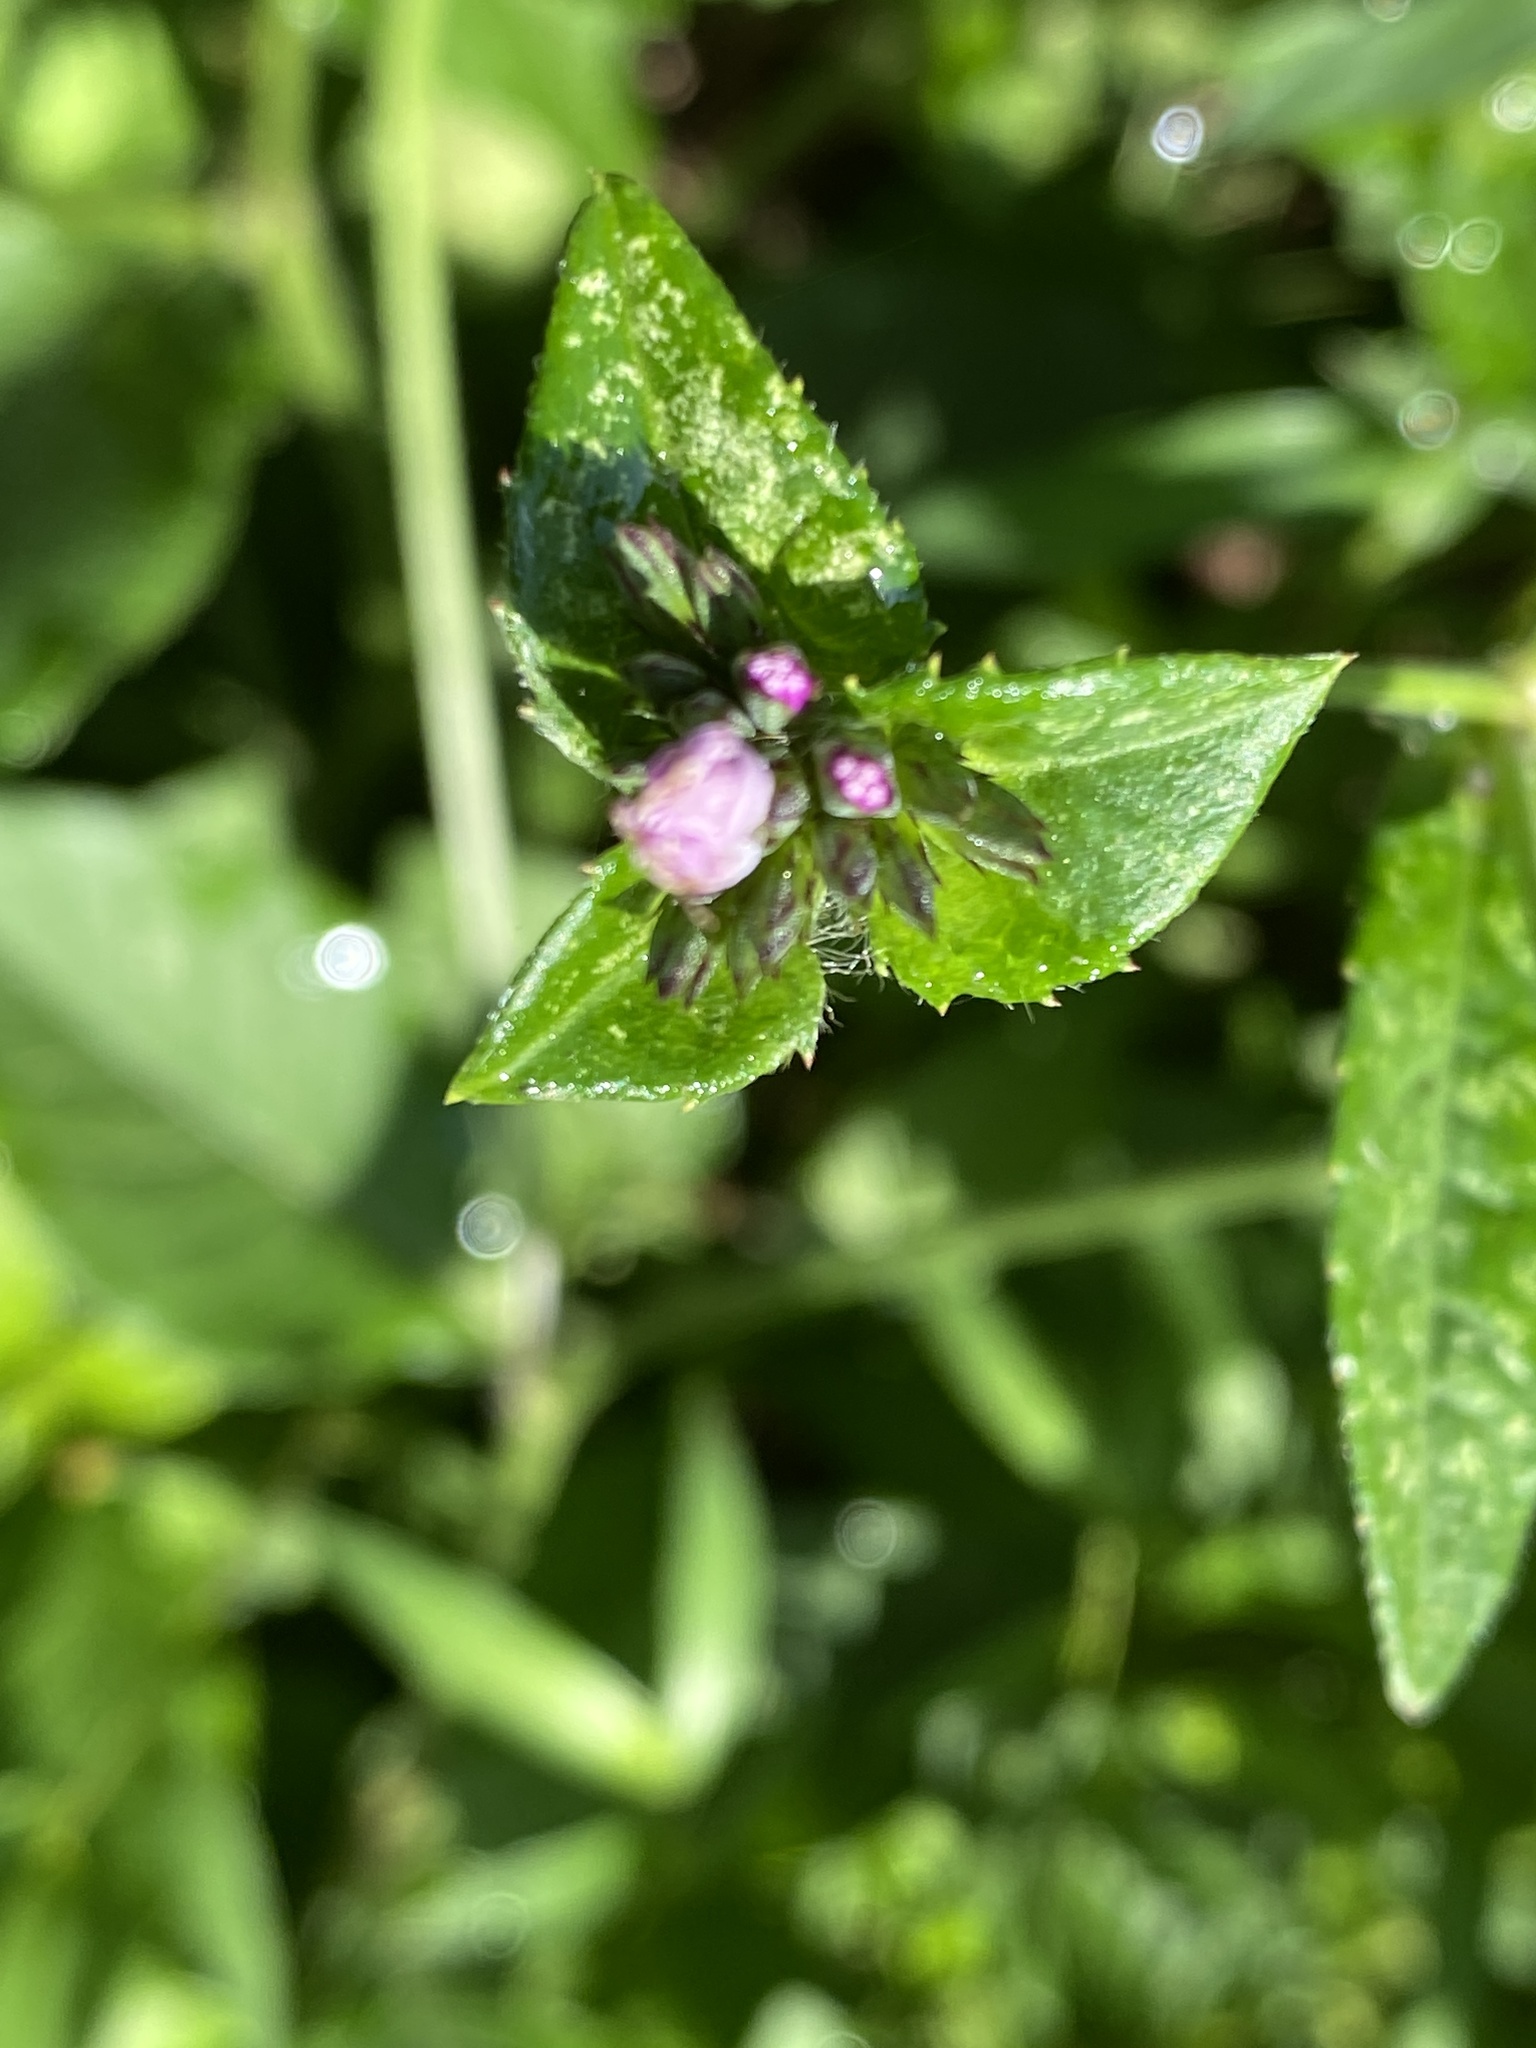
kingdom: Plantae
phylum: Tracheophyta
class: Magnoliopsida
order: Asterales
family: Asteraceae
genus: Elephantopus
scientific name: Elephantopus carolinianus
